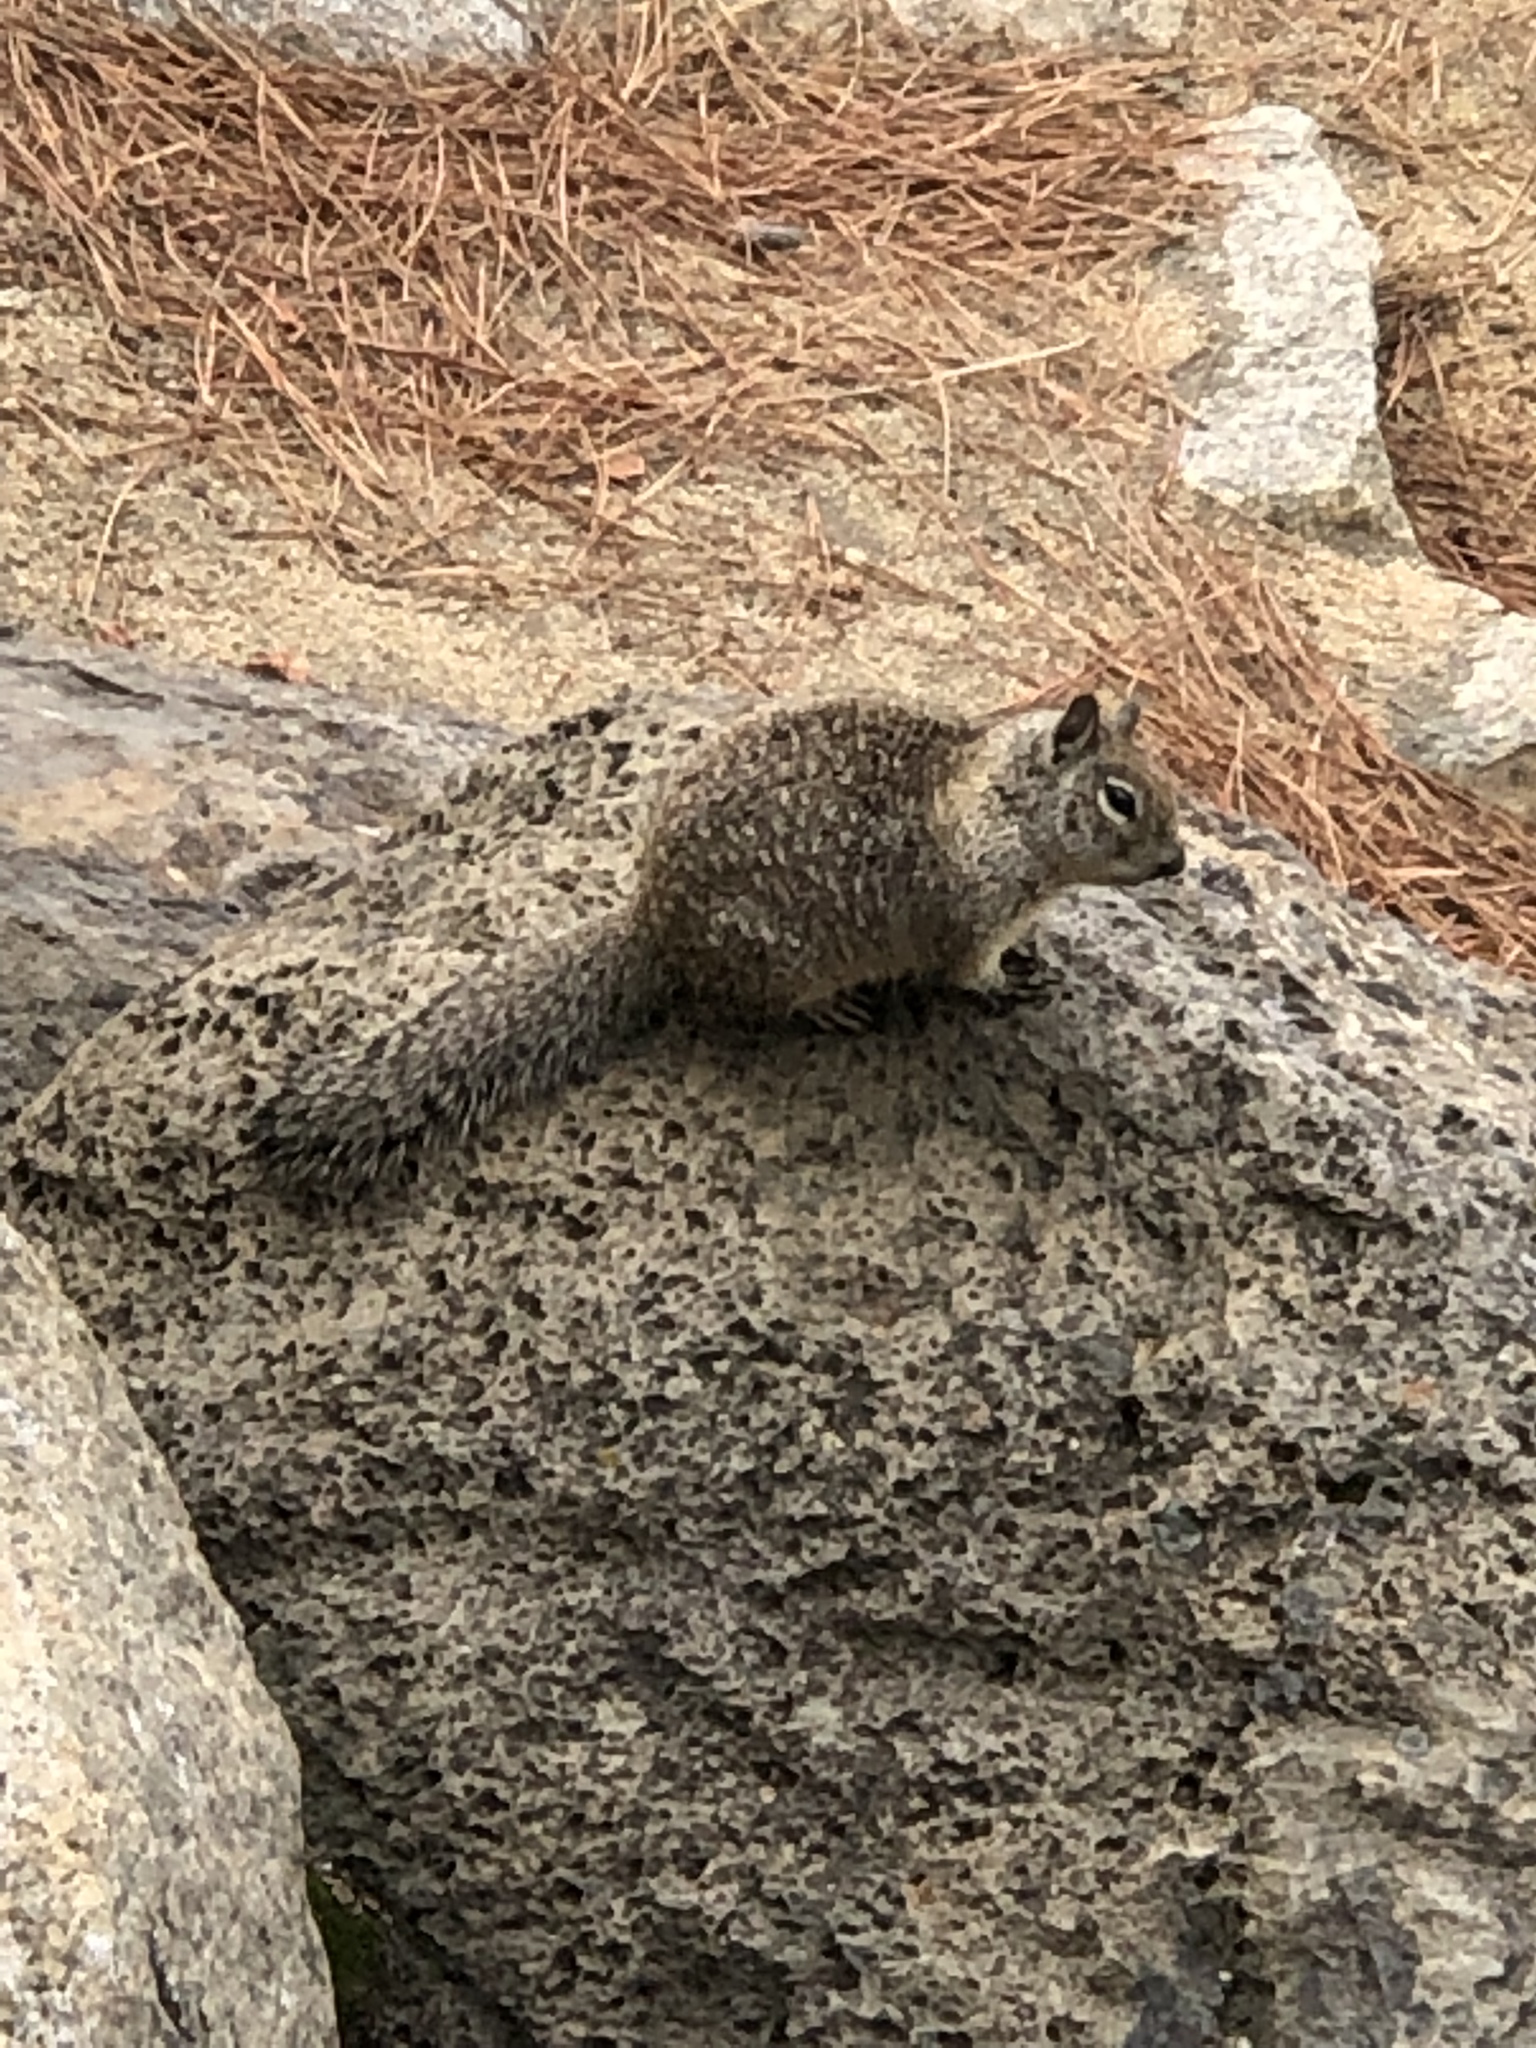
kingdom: Animalia
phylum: Chordata
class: Mammalia
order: Rodentia
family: Sciuridae
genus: Otospermophilus
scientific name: Otospermophilus beecheyi
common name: California ground squirrel
